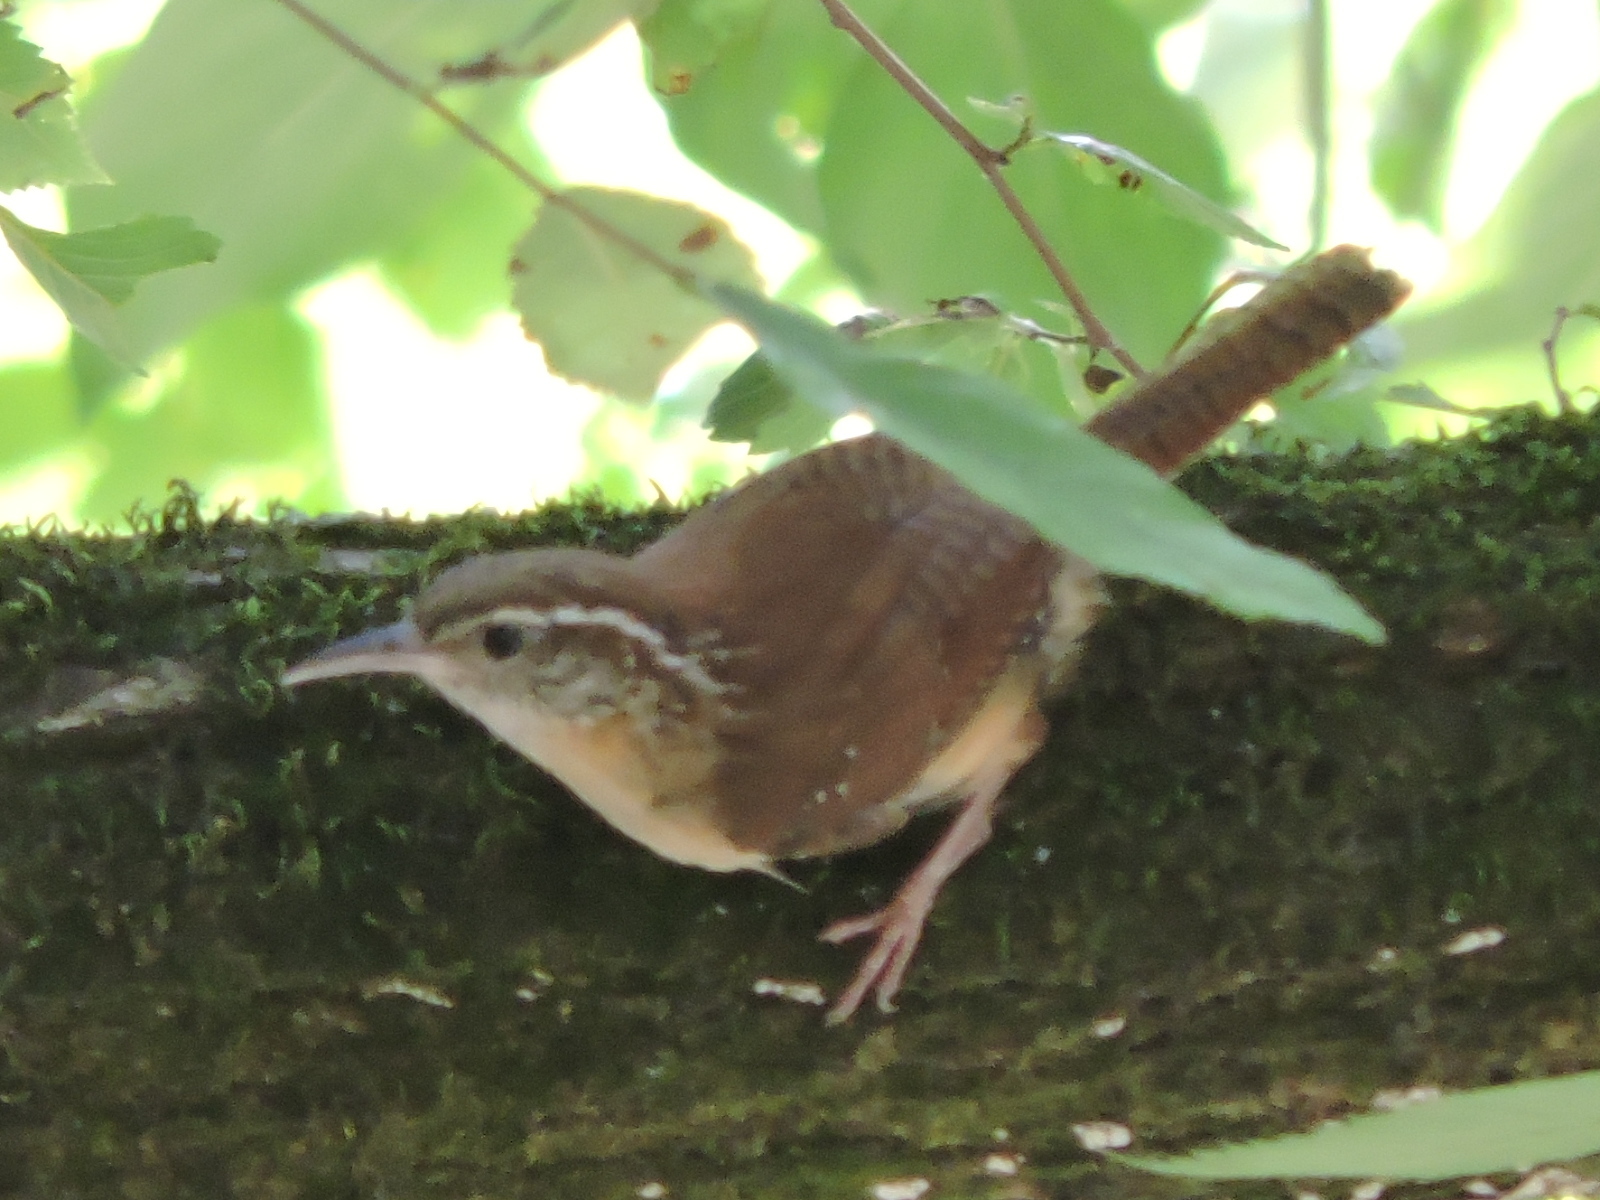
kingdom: Animalia
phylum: Chordata
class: Aves
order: Passeriformes
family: Troglodytidae
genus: Thryothorus
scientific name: Thryothorus ludovicianus
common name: Carolina wren
